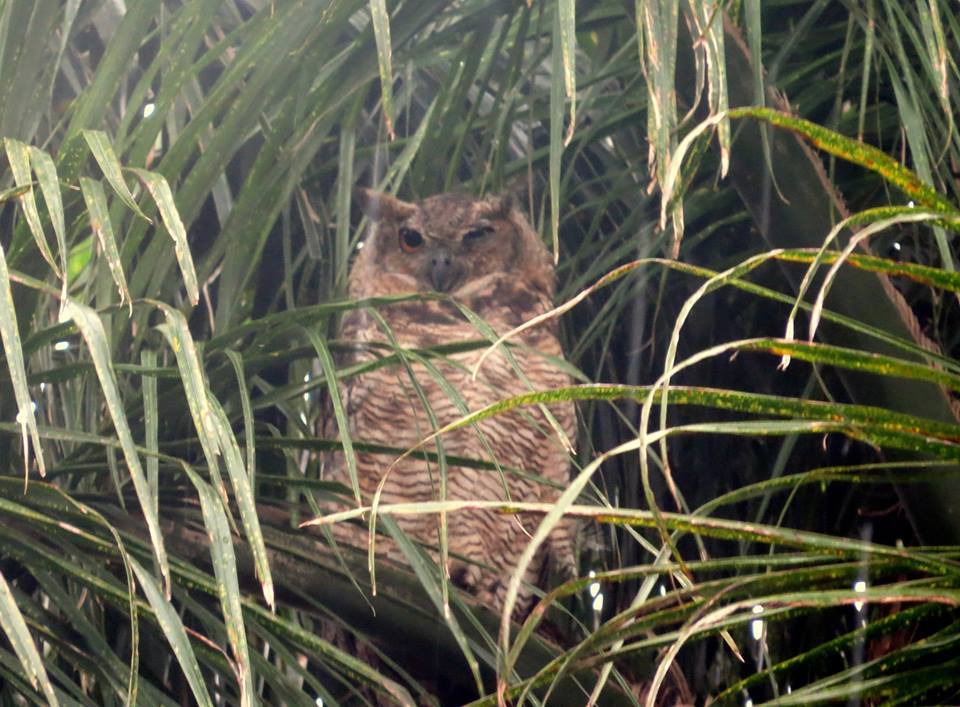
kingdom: Animalia
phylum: Chordata
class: Aves
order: Strigiformes
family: Strigidae
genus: Bubo
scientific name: Bubo virginianus
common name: Great horned owl
